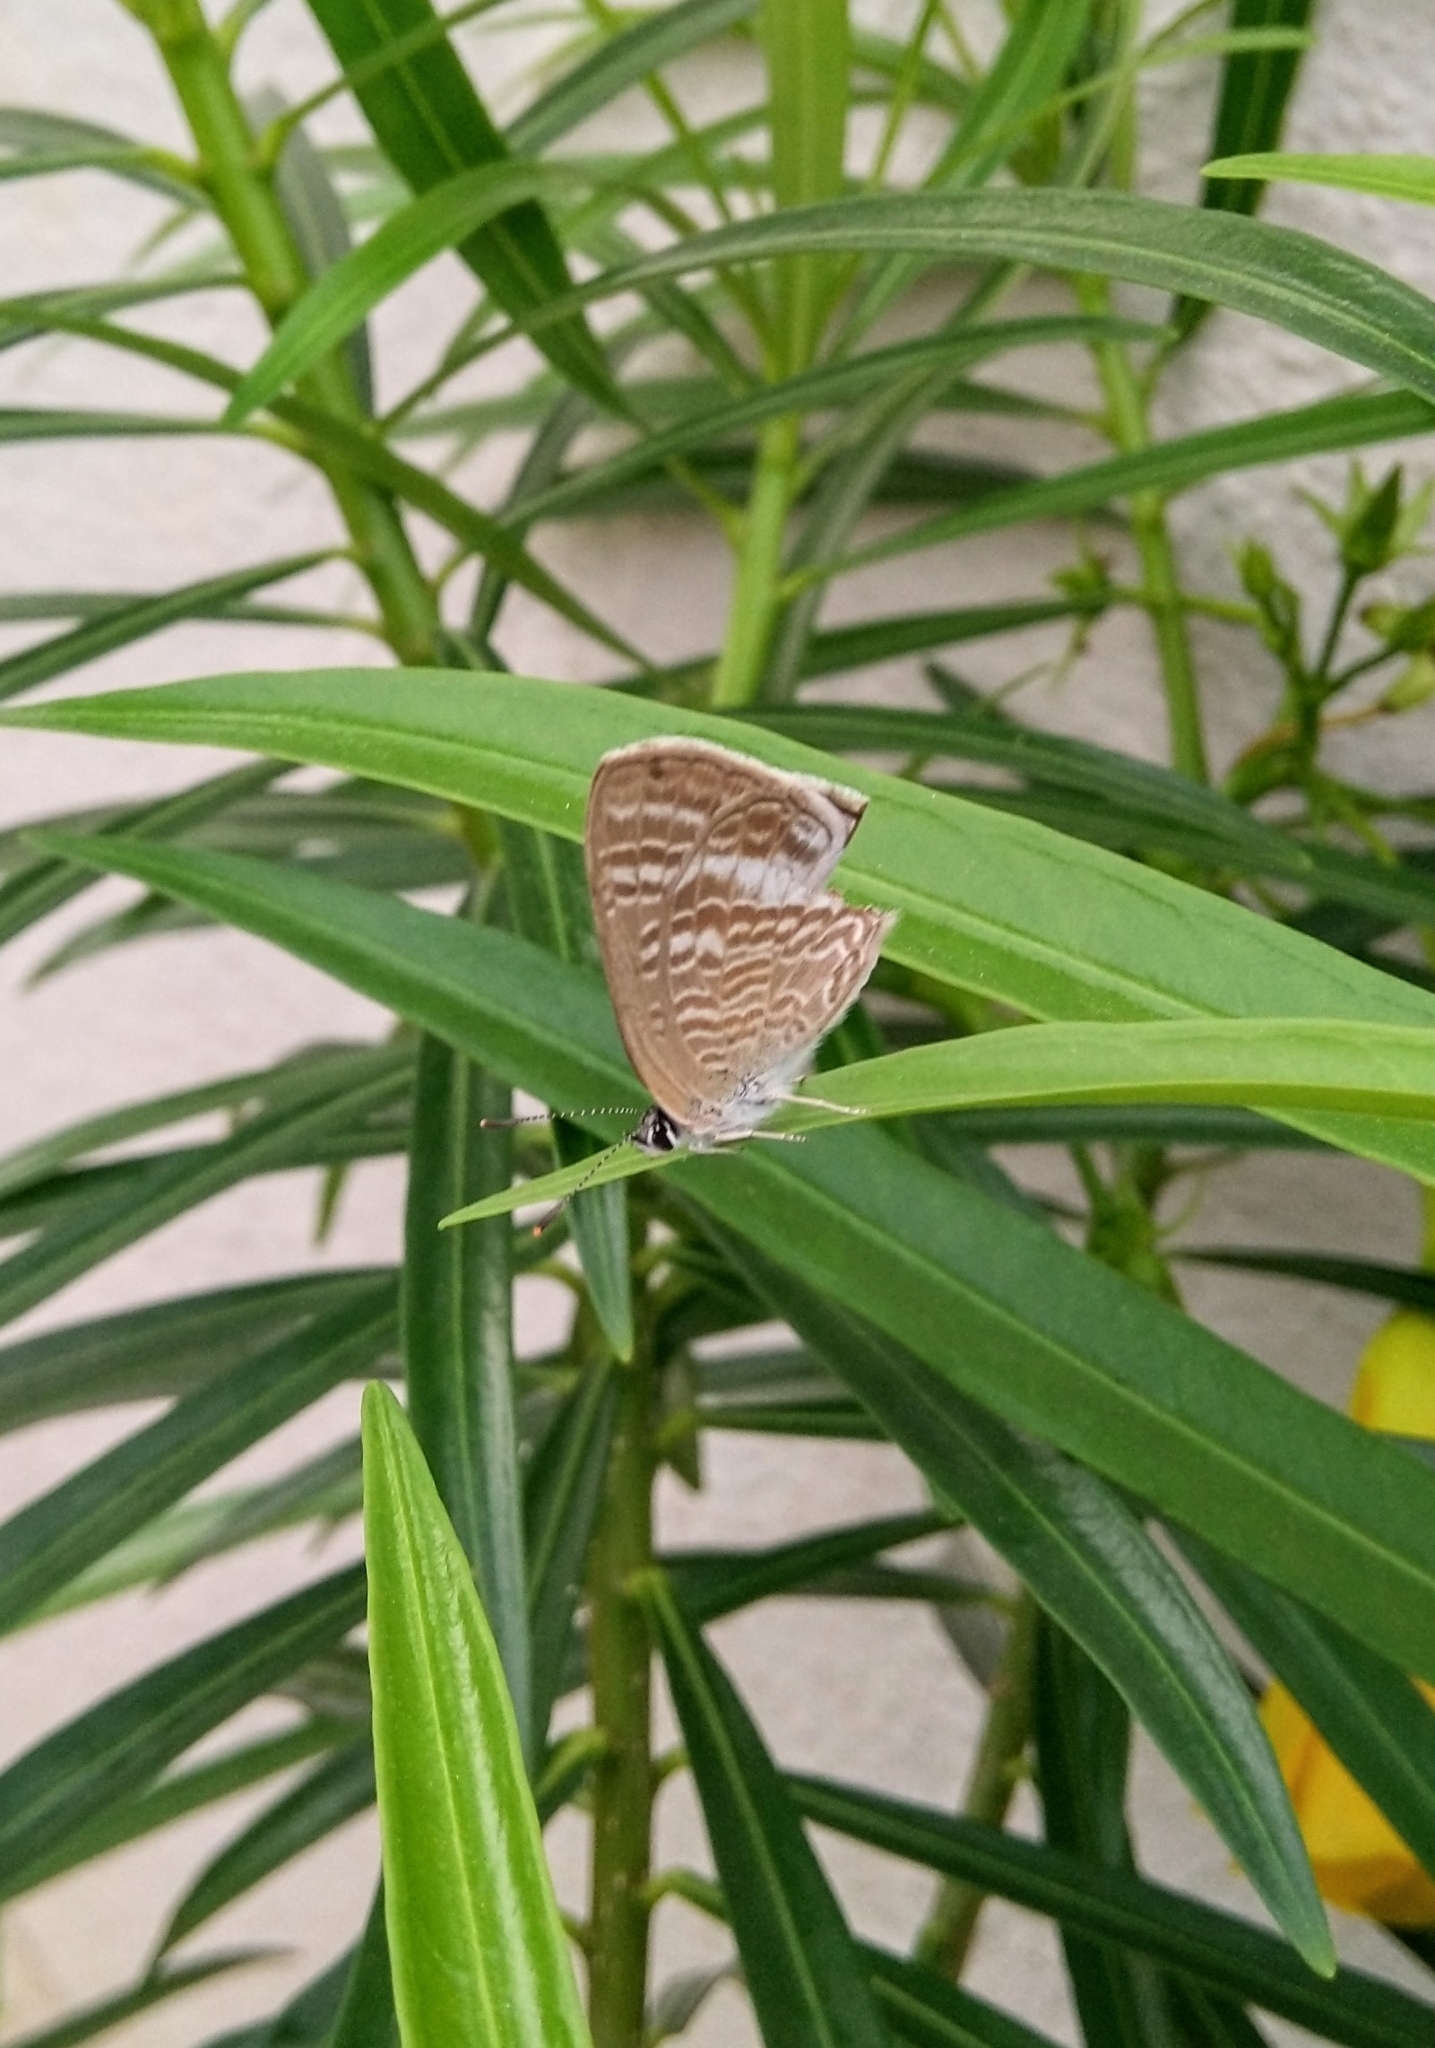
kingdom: Animalia
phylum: Arthropoda
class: Insecta
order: Lepidoptera
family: Lycaenidae
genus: Lampides
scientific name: Lampides boeticus
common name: Long-tailed blue
